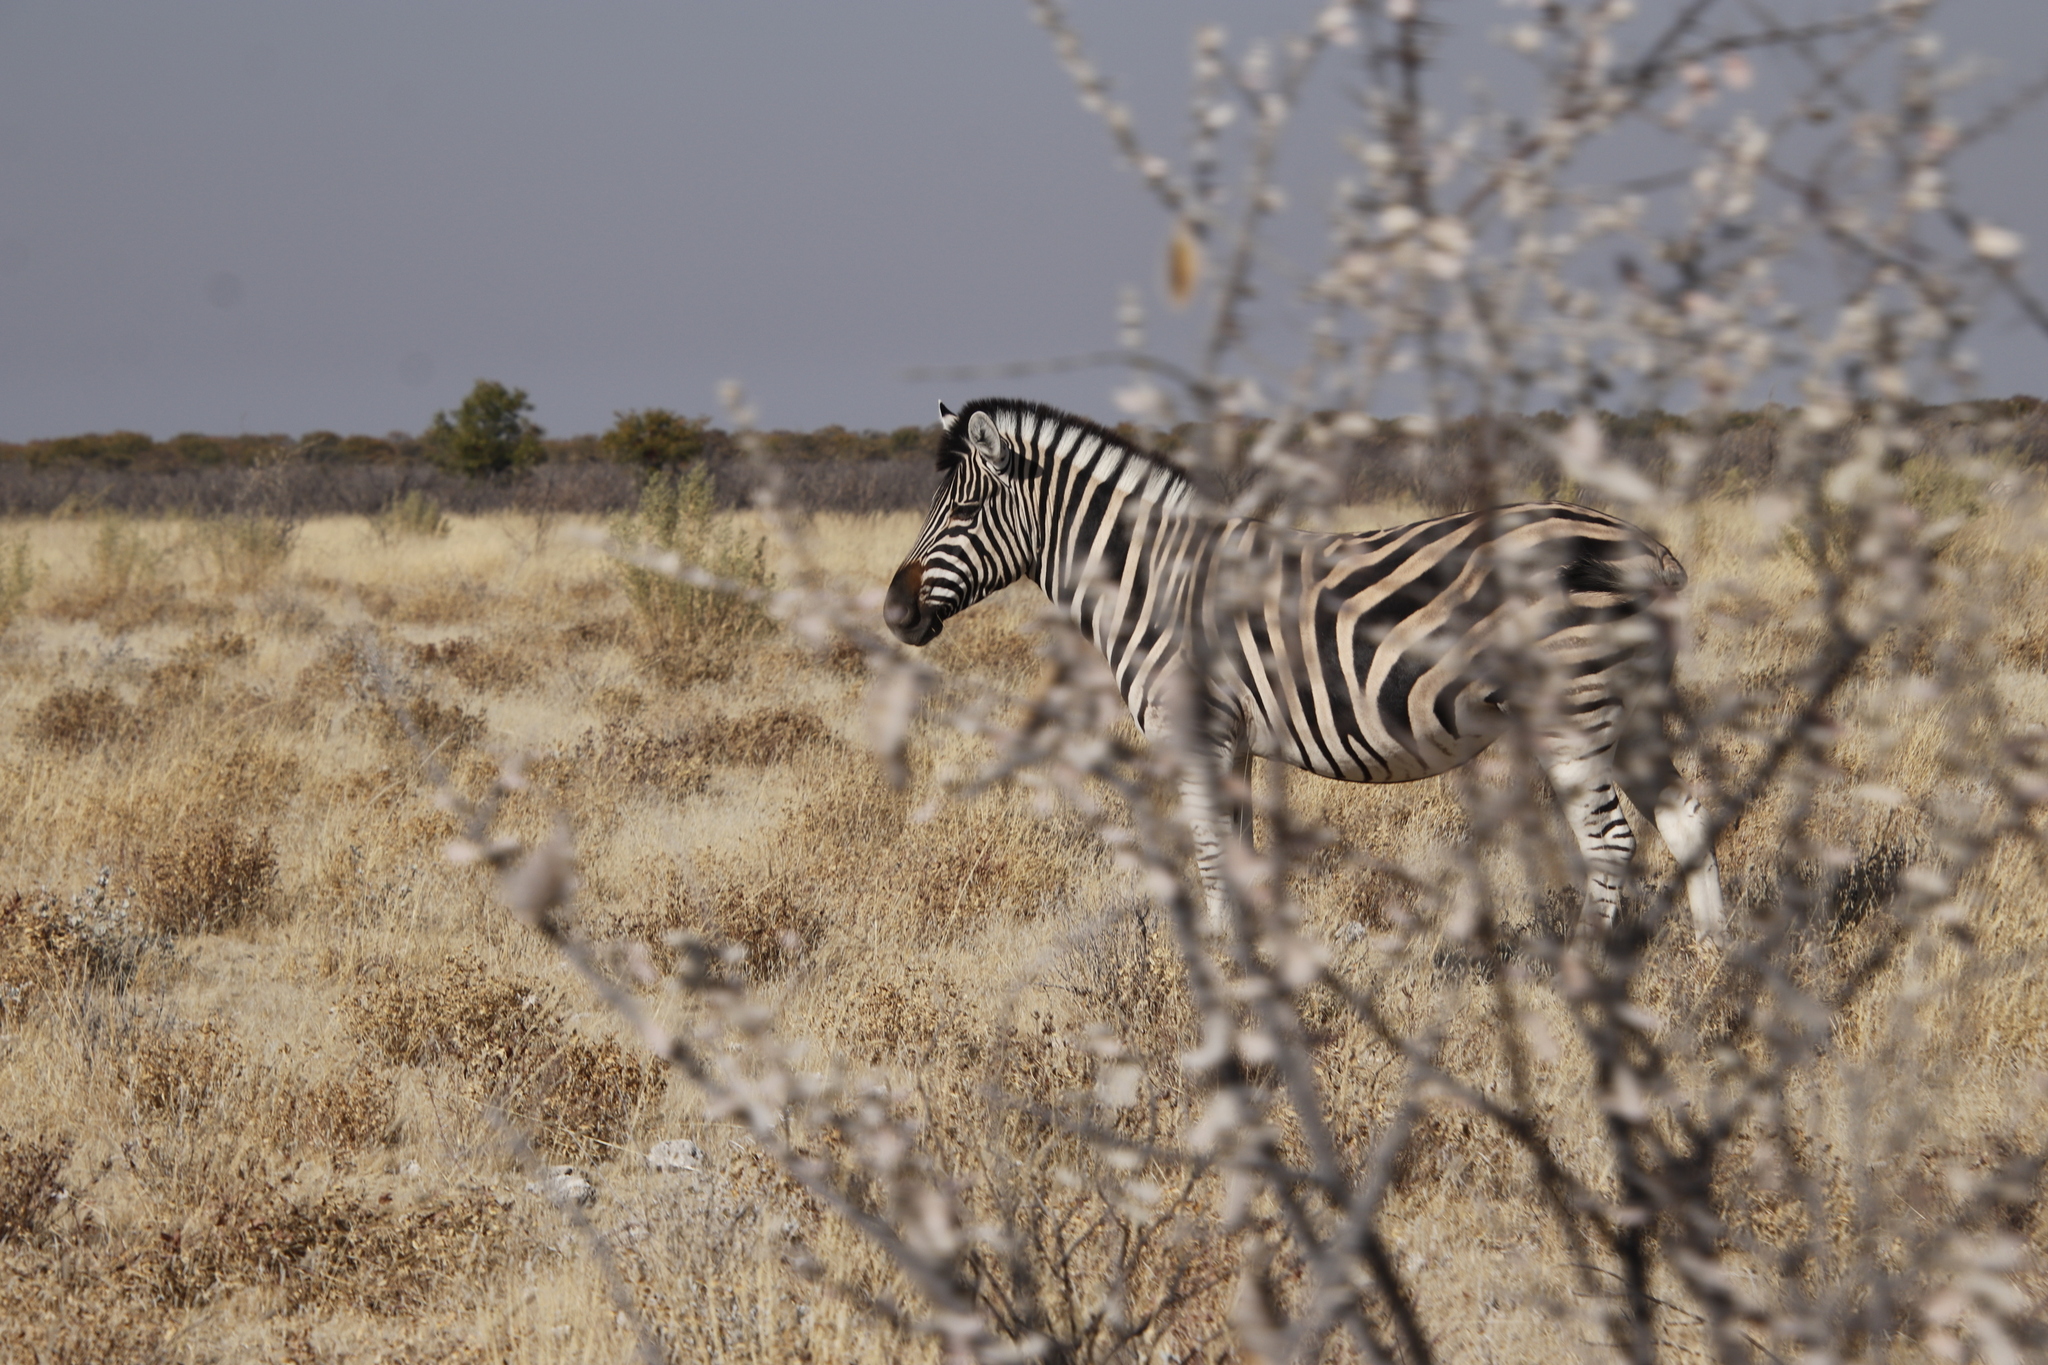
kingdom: Animalia
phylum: Chordata
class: Mammalia
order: Perissodactyla
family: Equidae
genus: Equus
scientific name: Equus quagga
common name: Plains zebra
